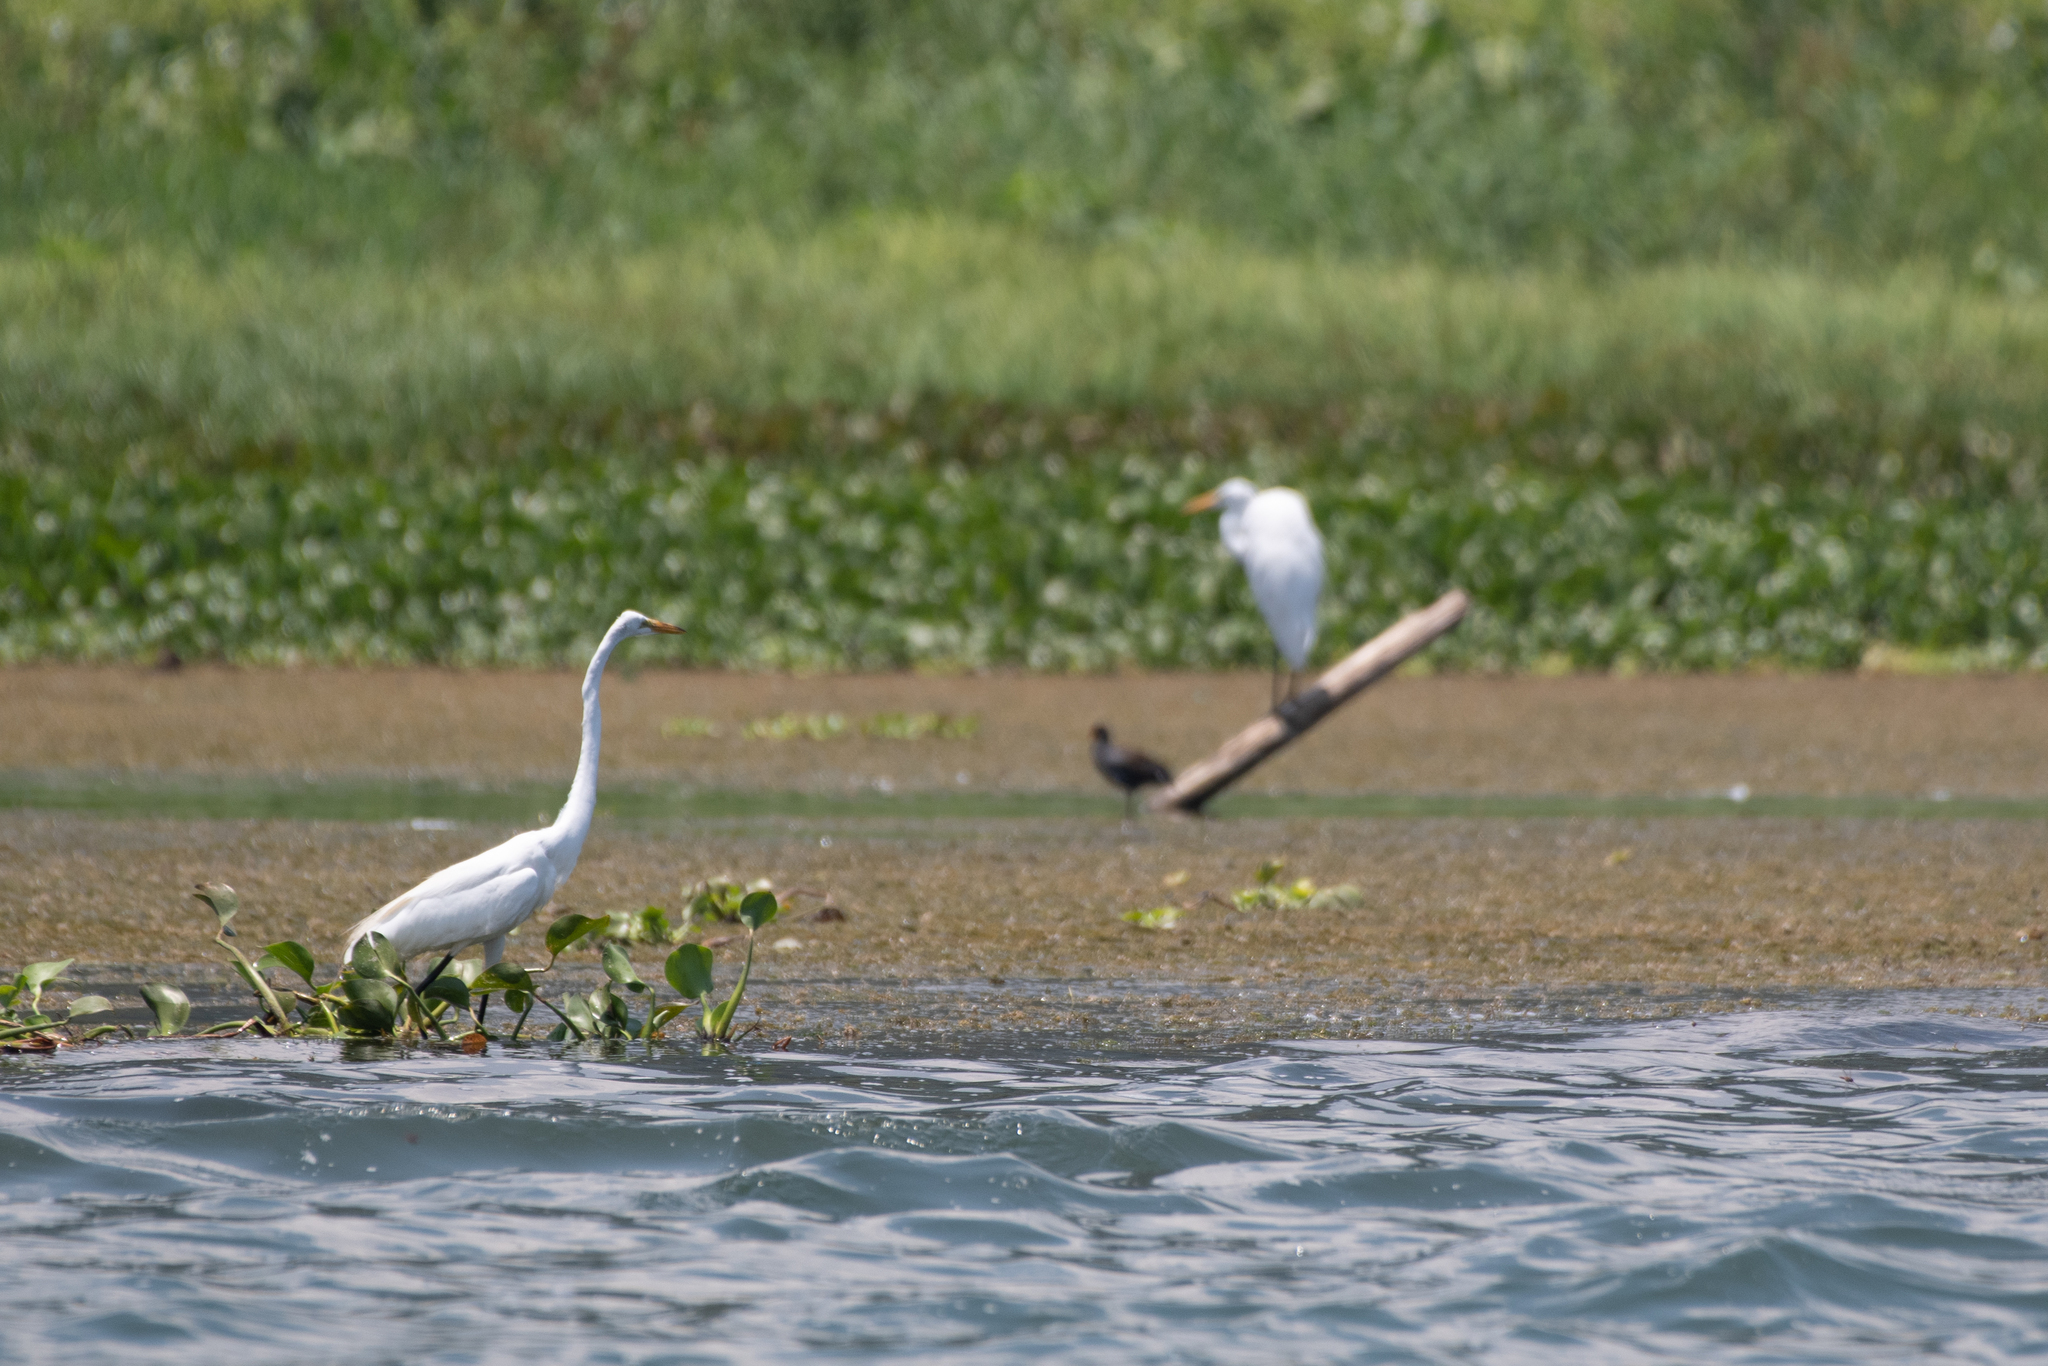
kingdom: Animalia
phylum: Chordata
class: Aves
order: Pelecaniformes
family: Ardeidae
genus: Ardea
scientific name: Ardea alba
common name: Great egret
